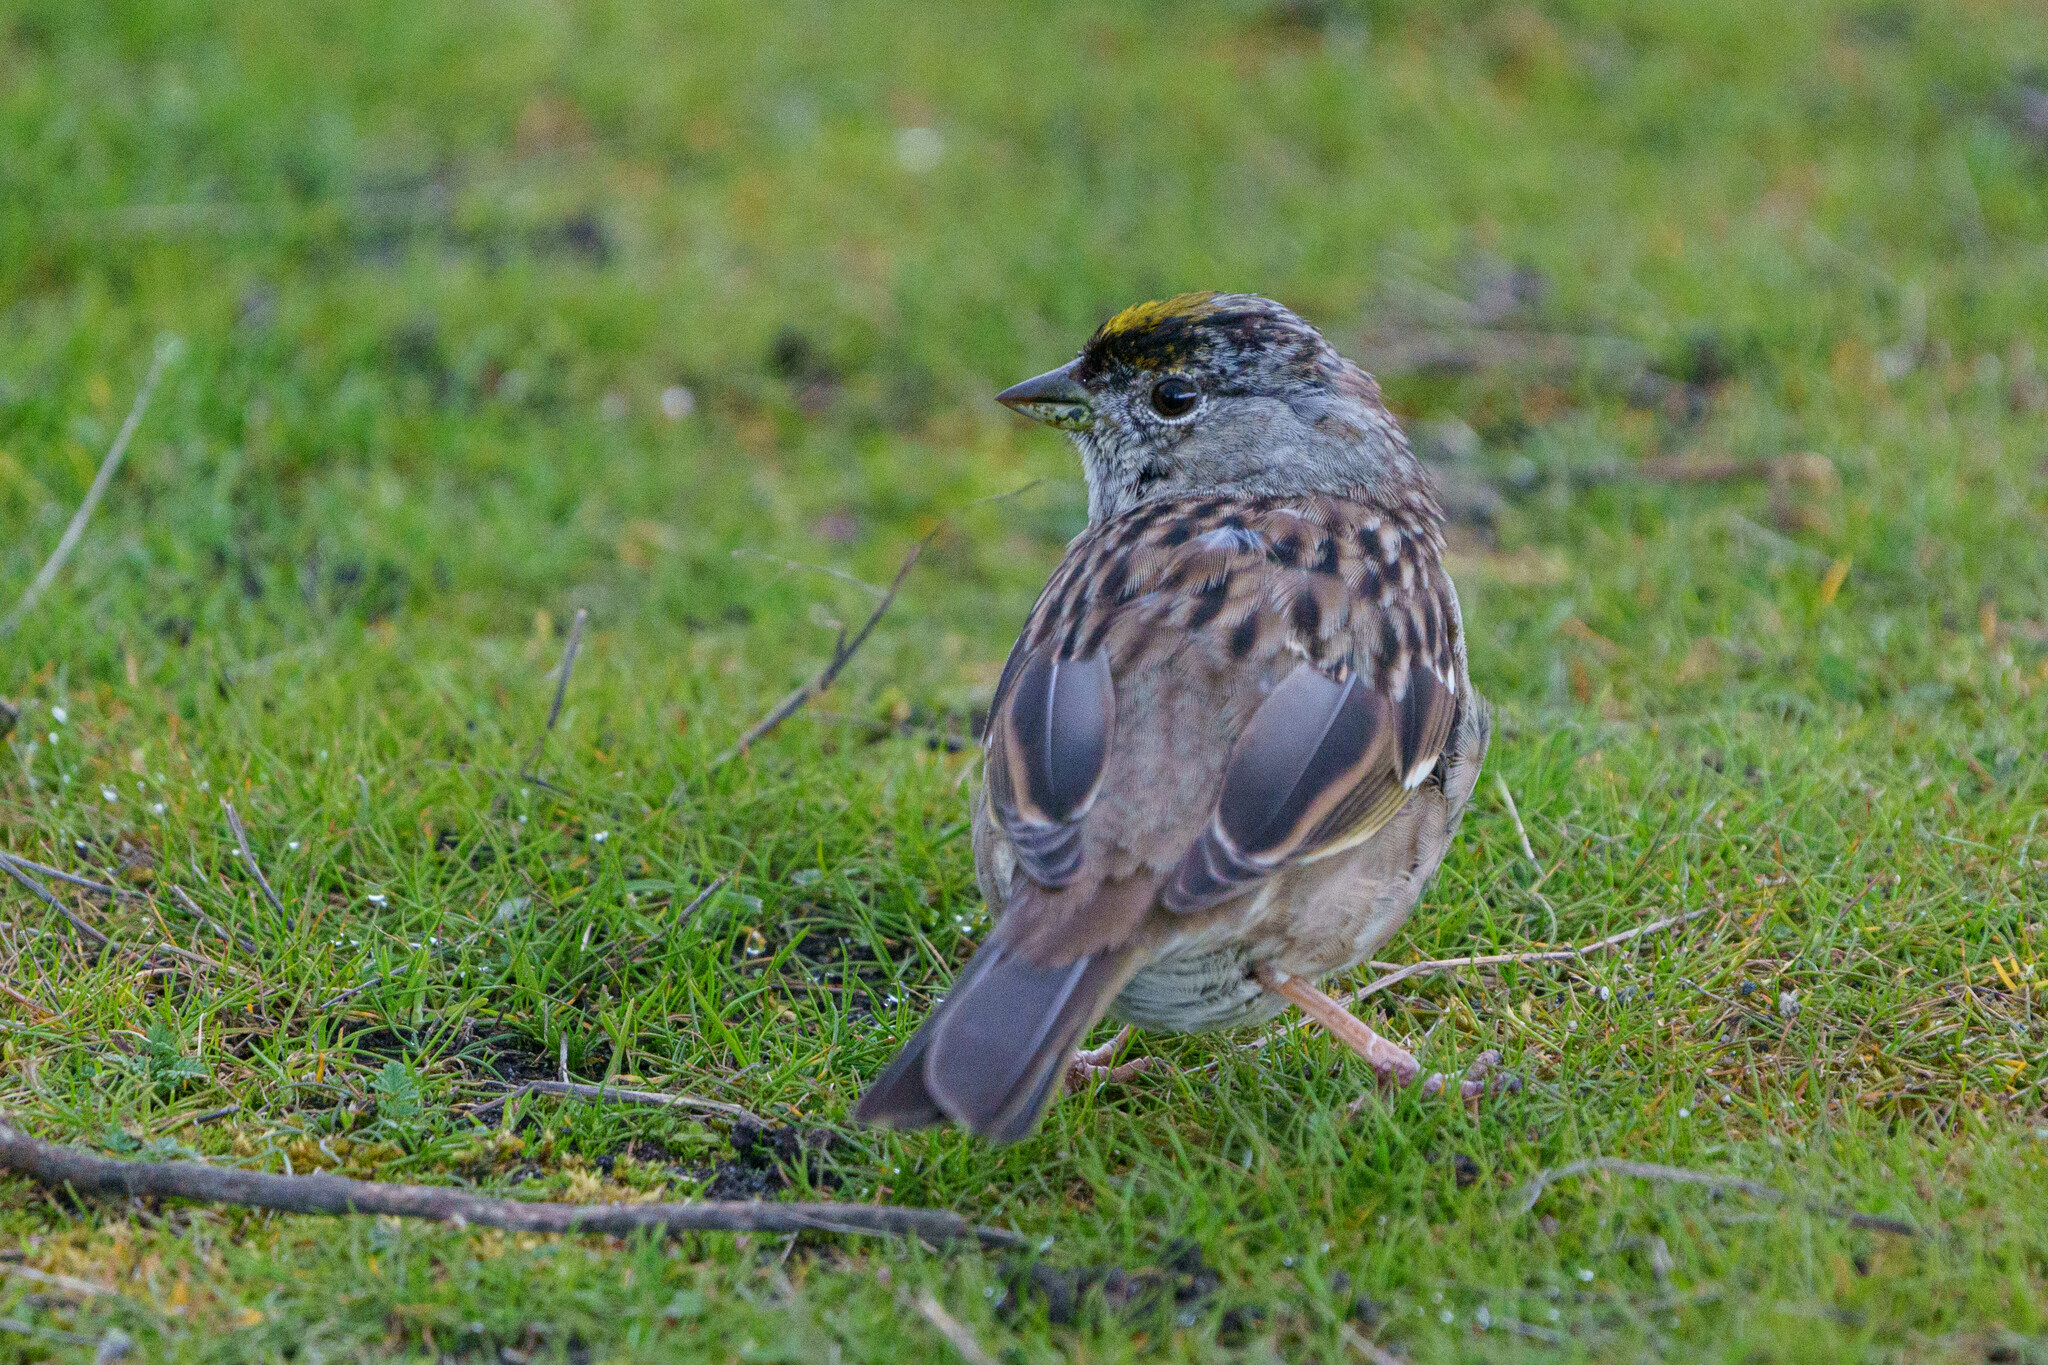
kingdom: Animalia
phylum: Chordata
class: Aves
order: Passeriformes
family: Passerellidae
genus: Zonotrichia
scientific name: Zonotrichia atricapilla
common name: Golden-crowned sparrow
